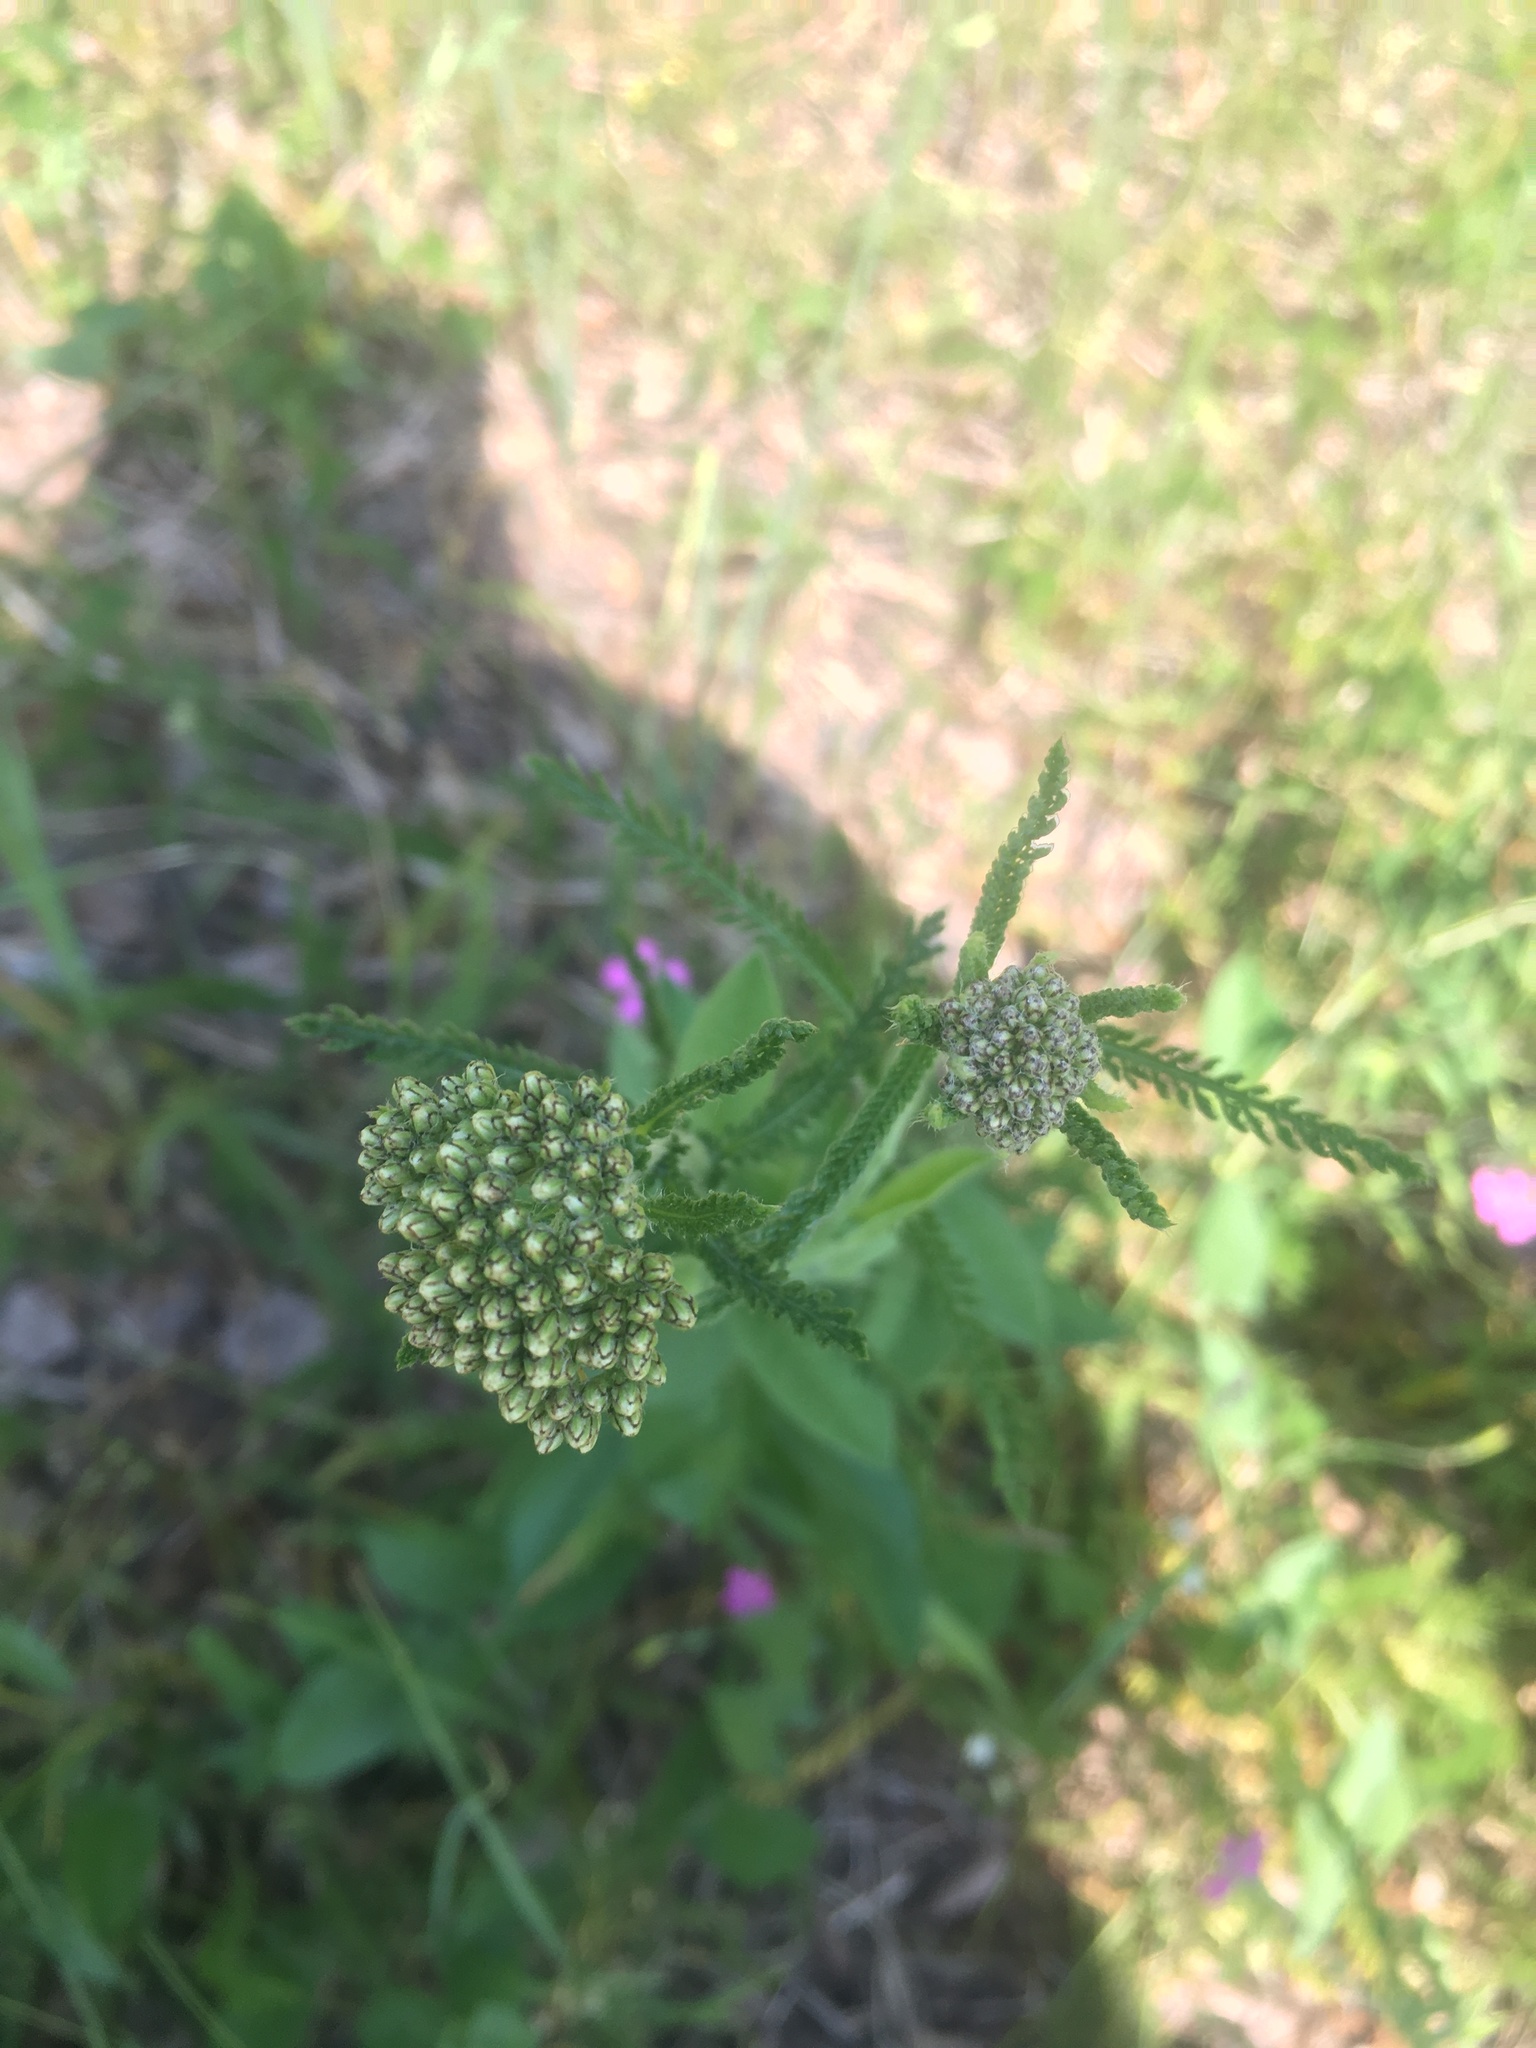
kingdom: Plantae
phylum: Tracheophyta
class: Magnoliopsida
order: Asterales
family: Asteraceae
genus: Achillea
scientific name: Achillea millefolium
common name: Yarrow
